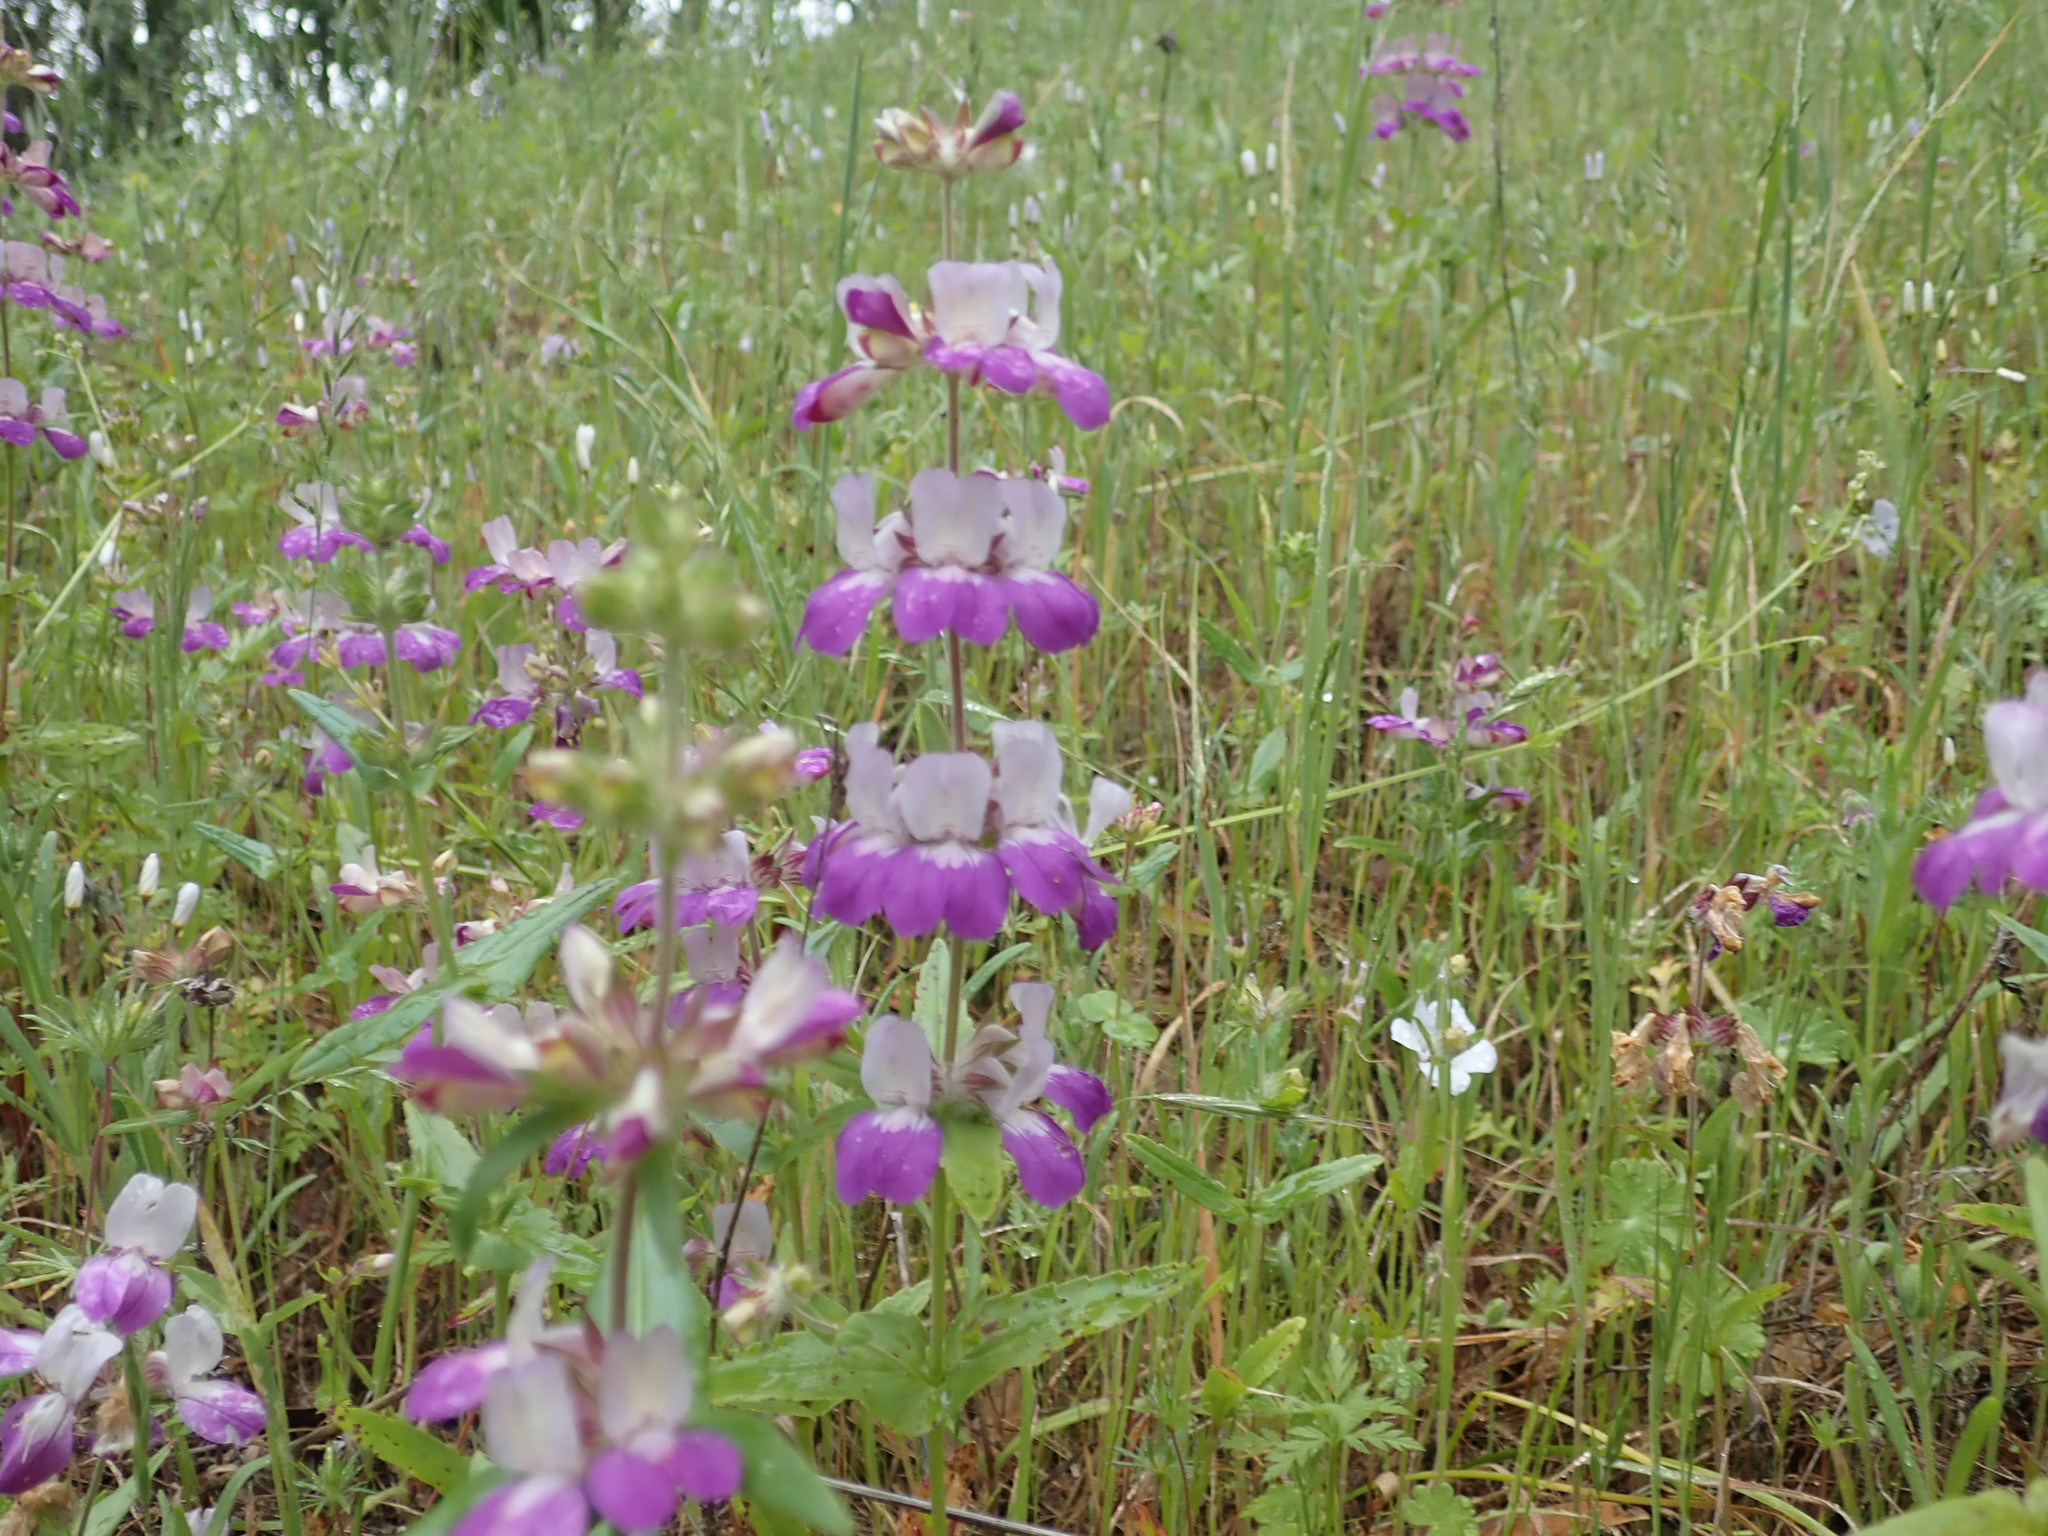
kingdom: Plantae
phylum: Tracheophyta
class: Magnoliopsida
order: Lamiales
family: Plantaginaceae
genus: Collinsia
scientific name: Collinsia heterophylla
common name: Chinese-houses
